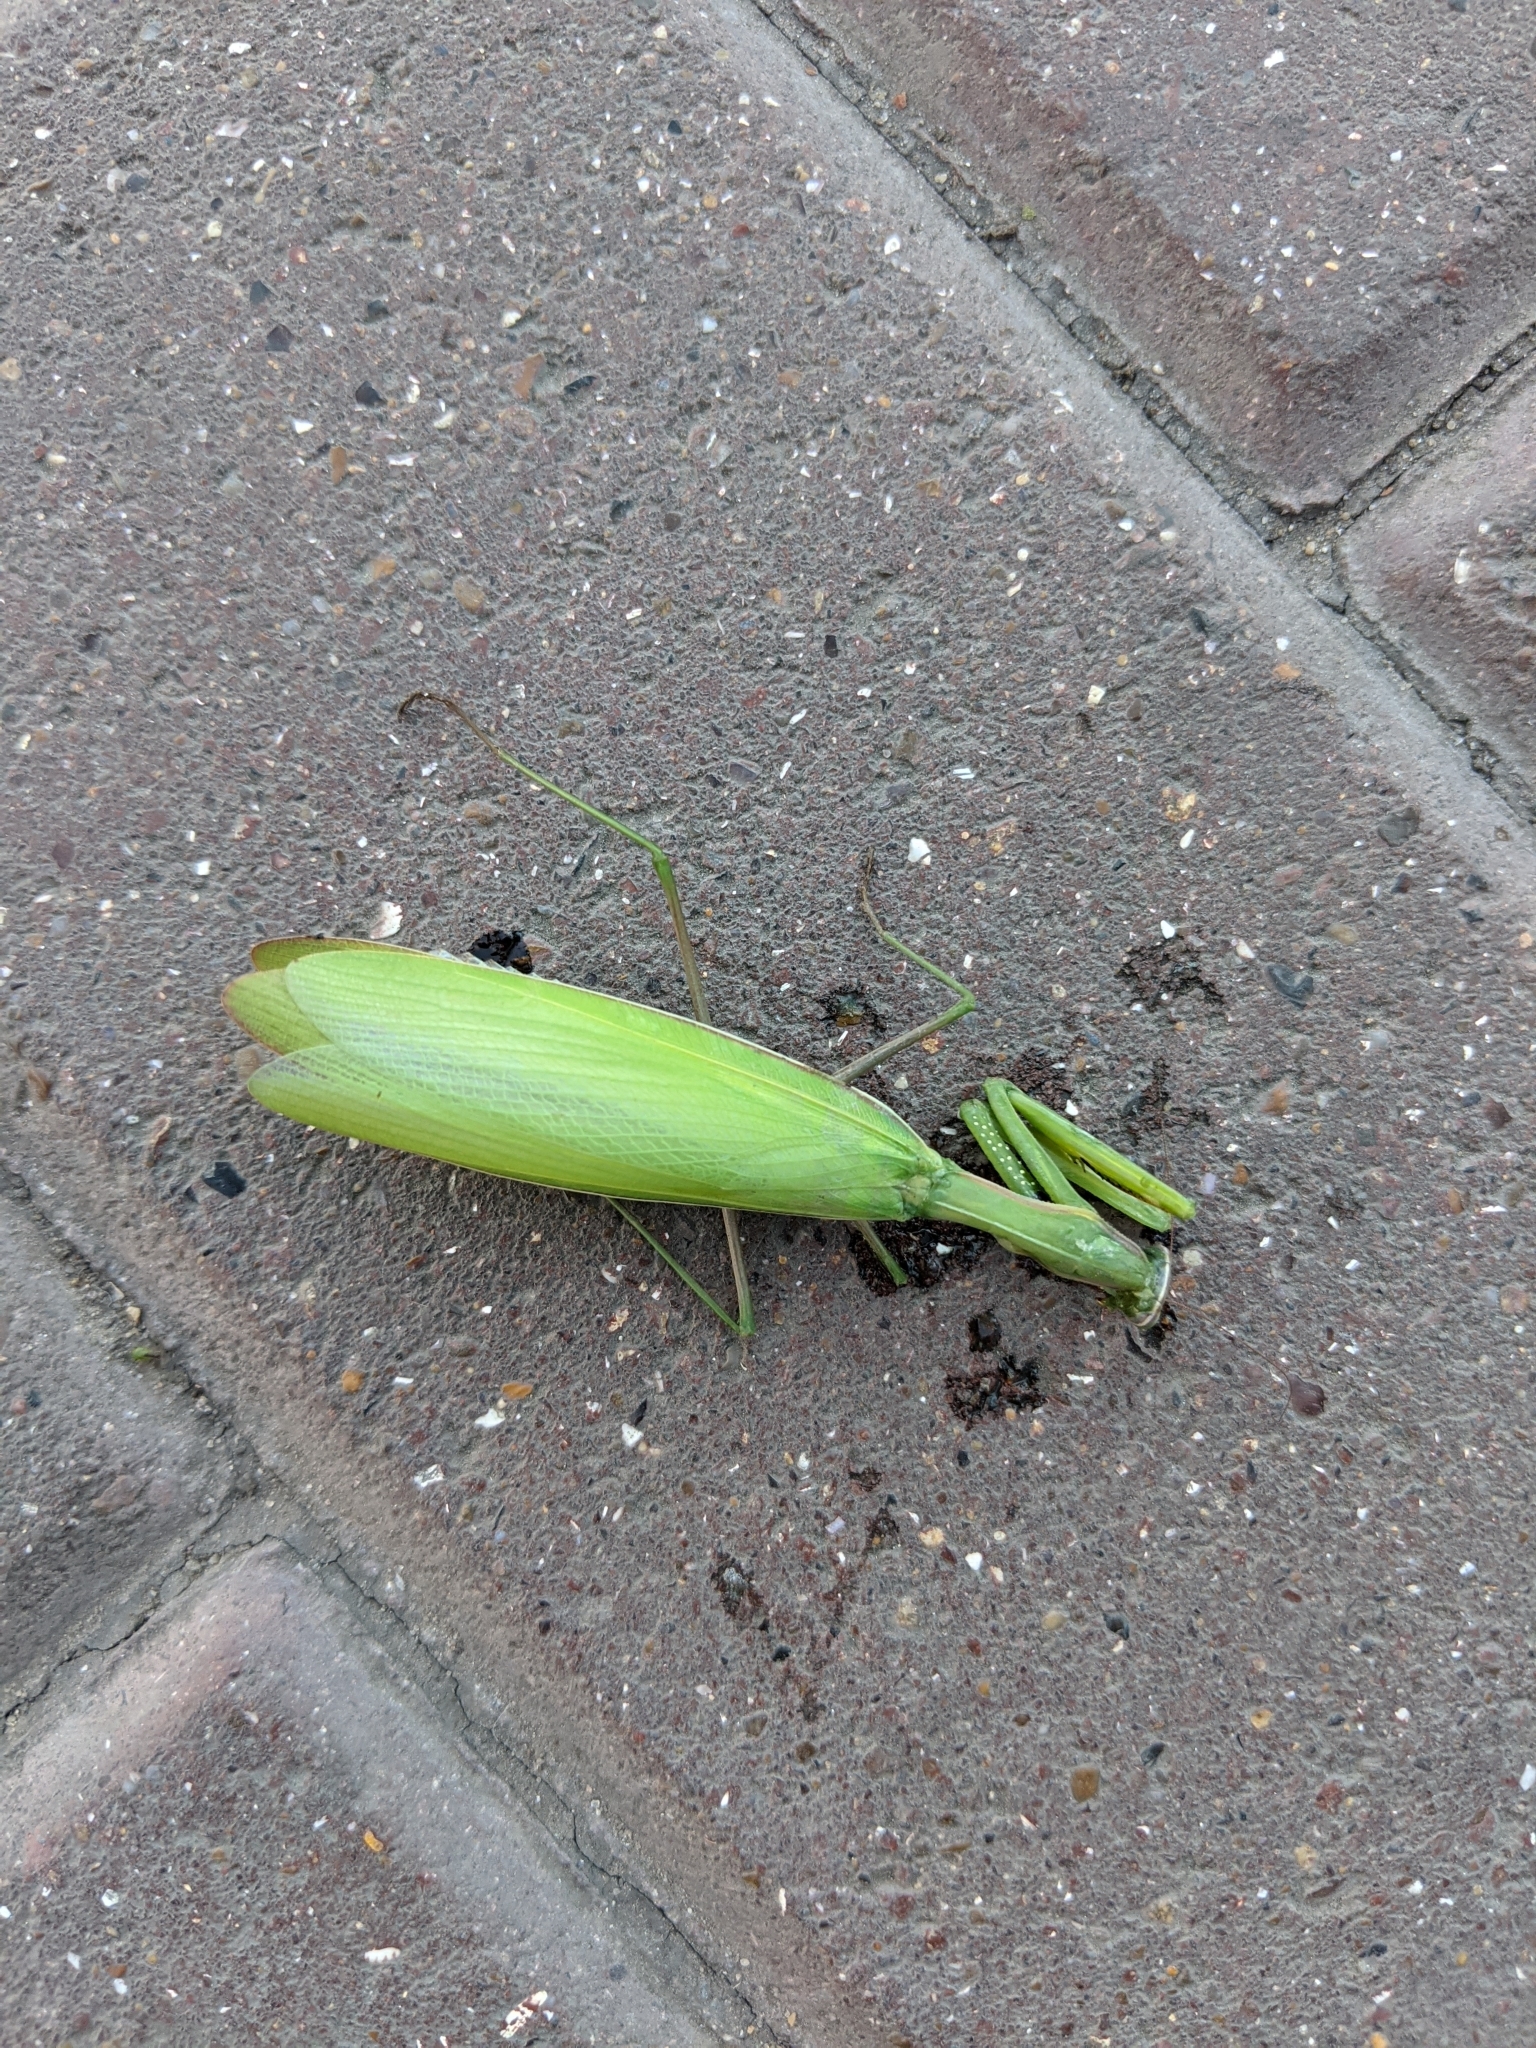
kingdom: Animalia
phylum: Arthropoda
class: Insecta
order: Mantodea
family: Mantidae
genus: Mantis
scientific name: Mantis religiosa
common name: Praying mantis
